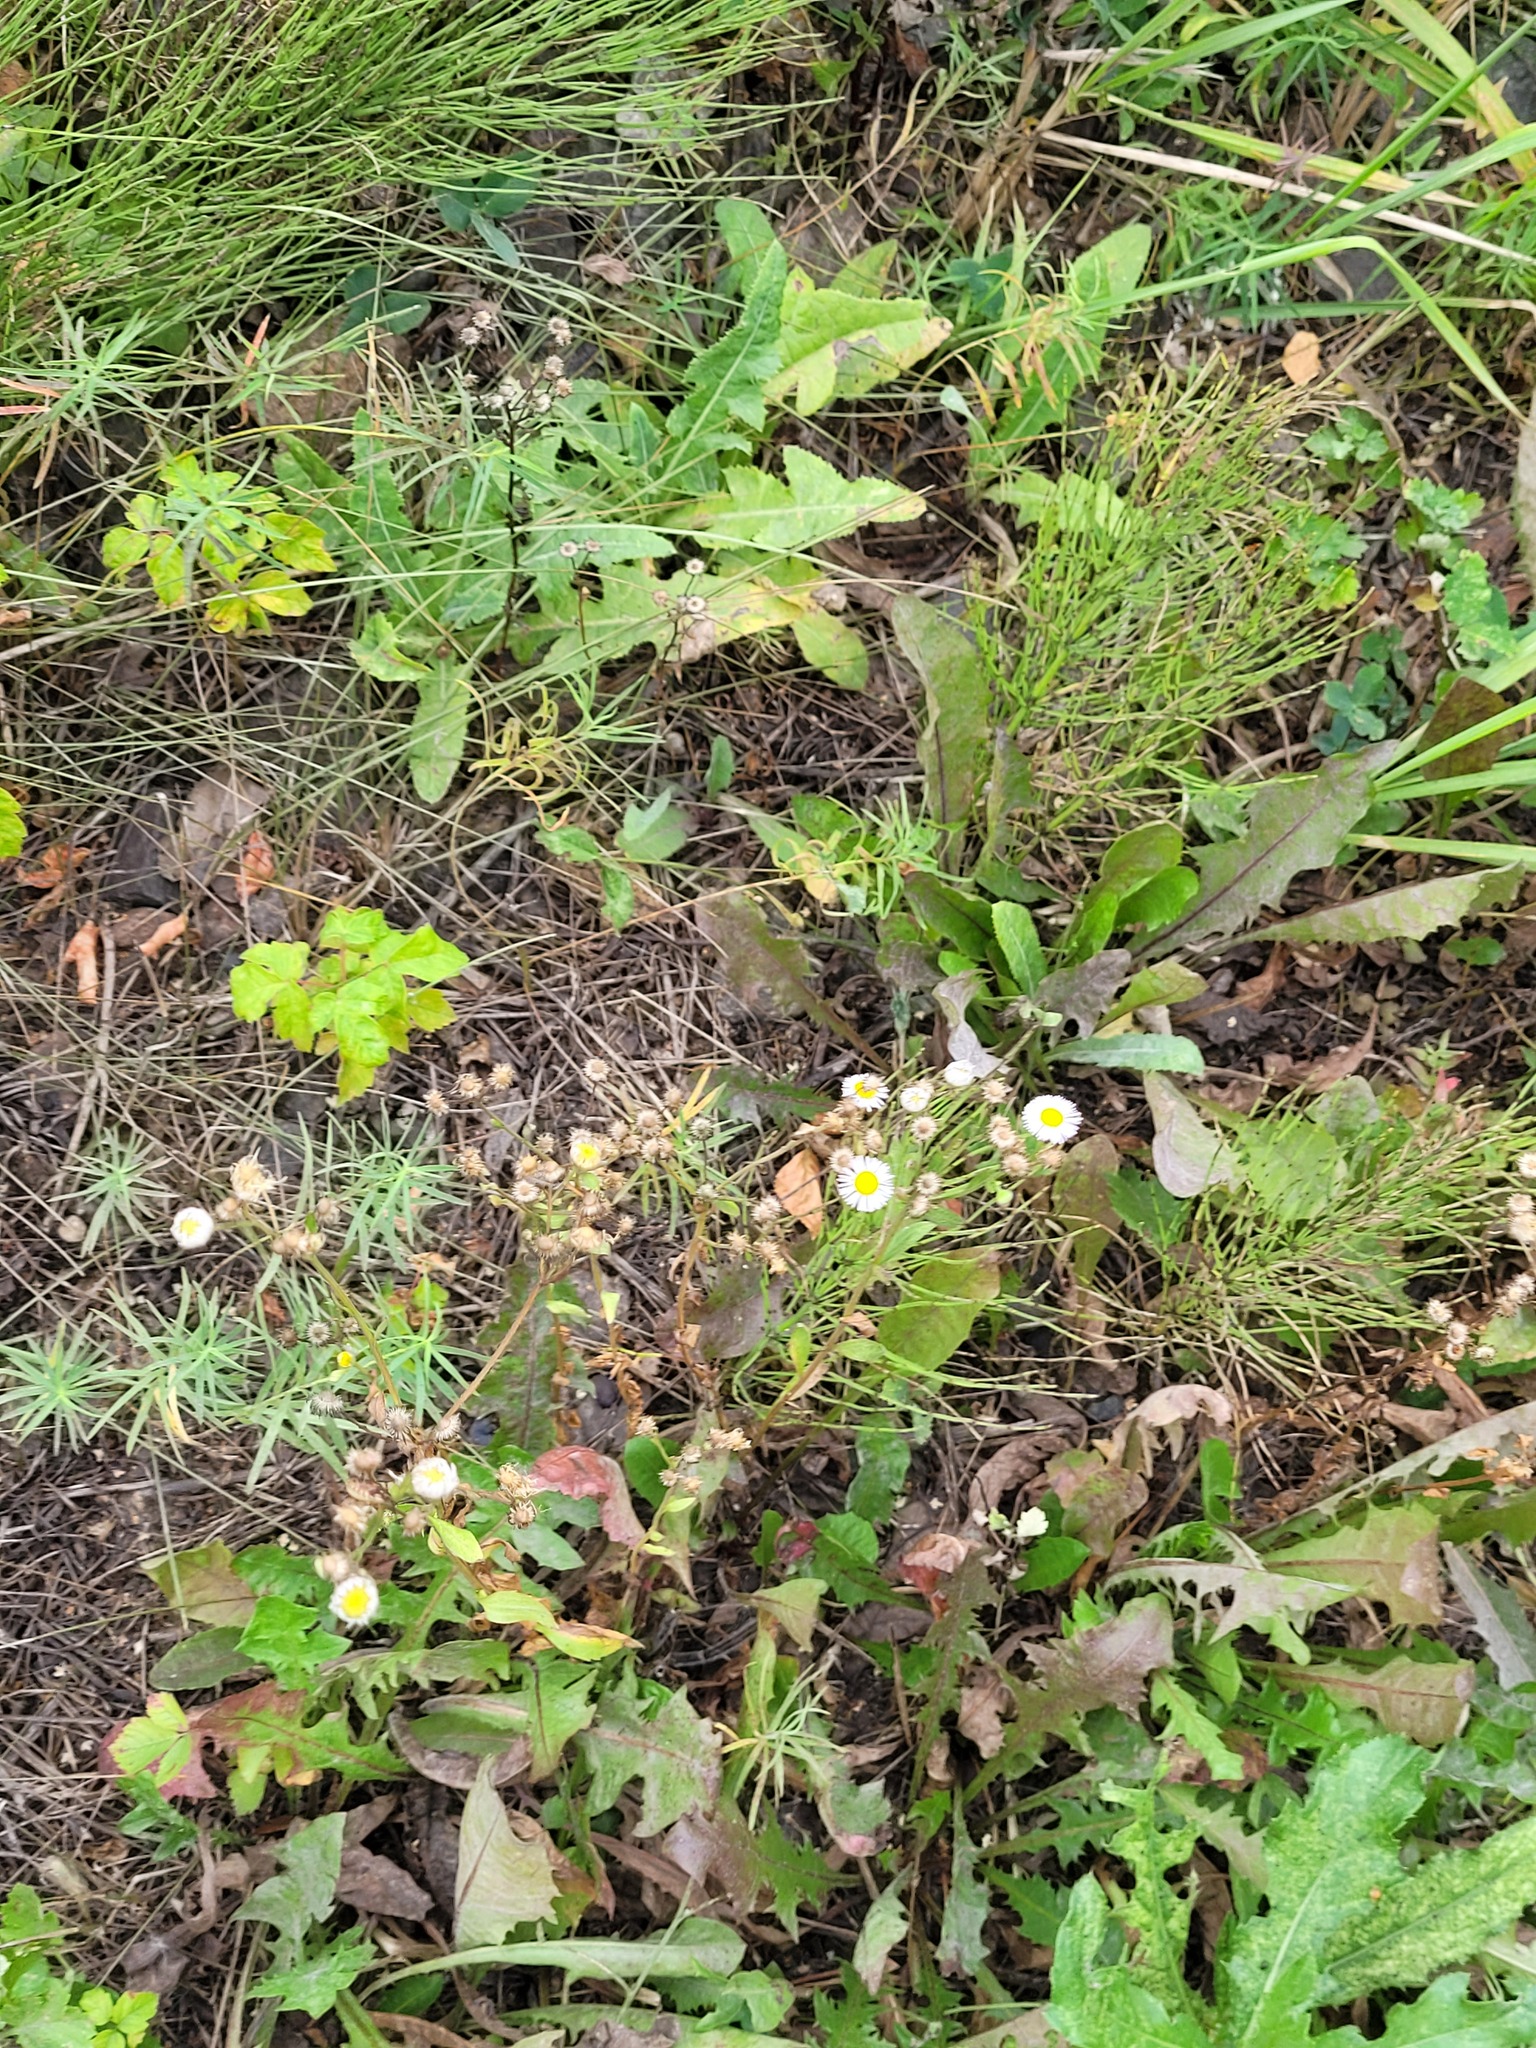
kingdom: Plantae
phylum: Tracheophyta
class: Magnoliopsida
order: Asterales
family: Asteraceae
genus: Erigeron
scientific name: Erigeron annuus
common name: Tall fleabane
